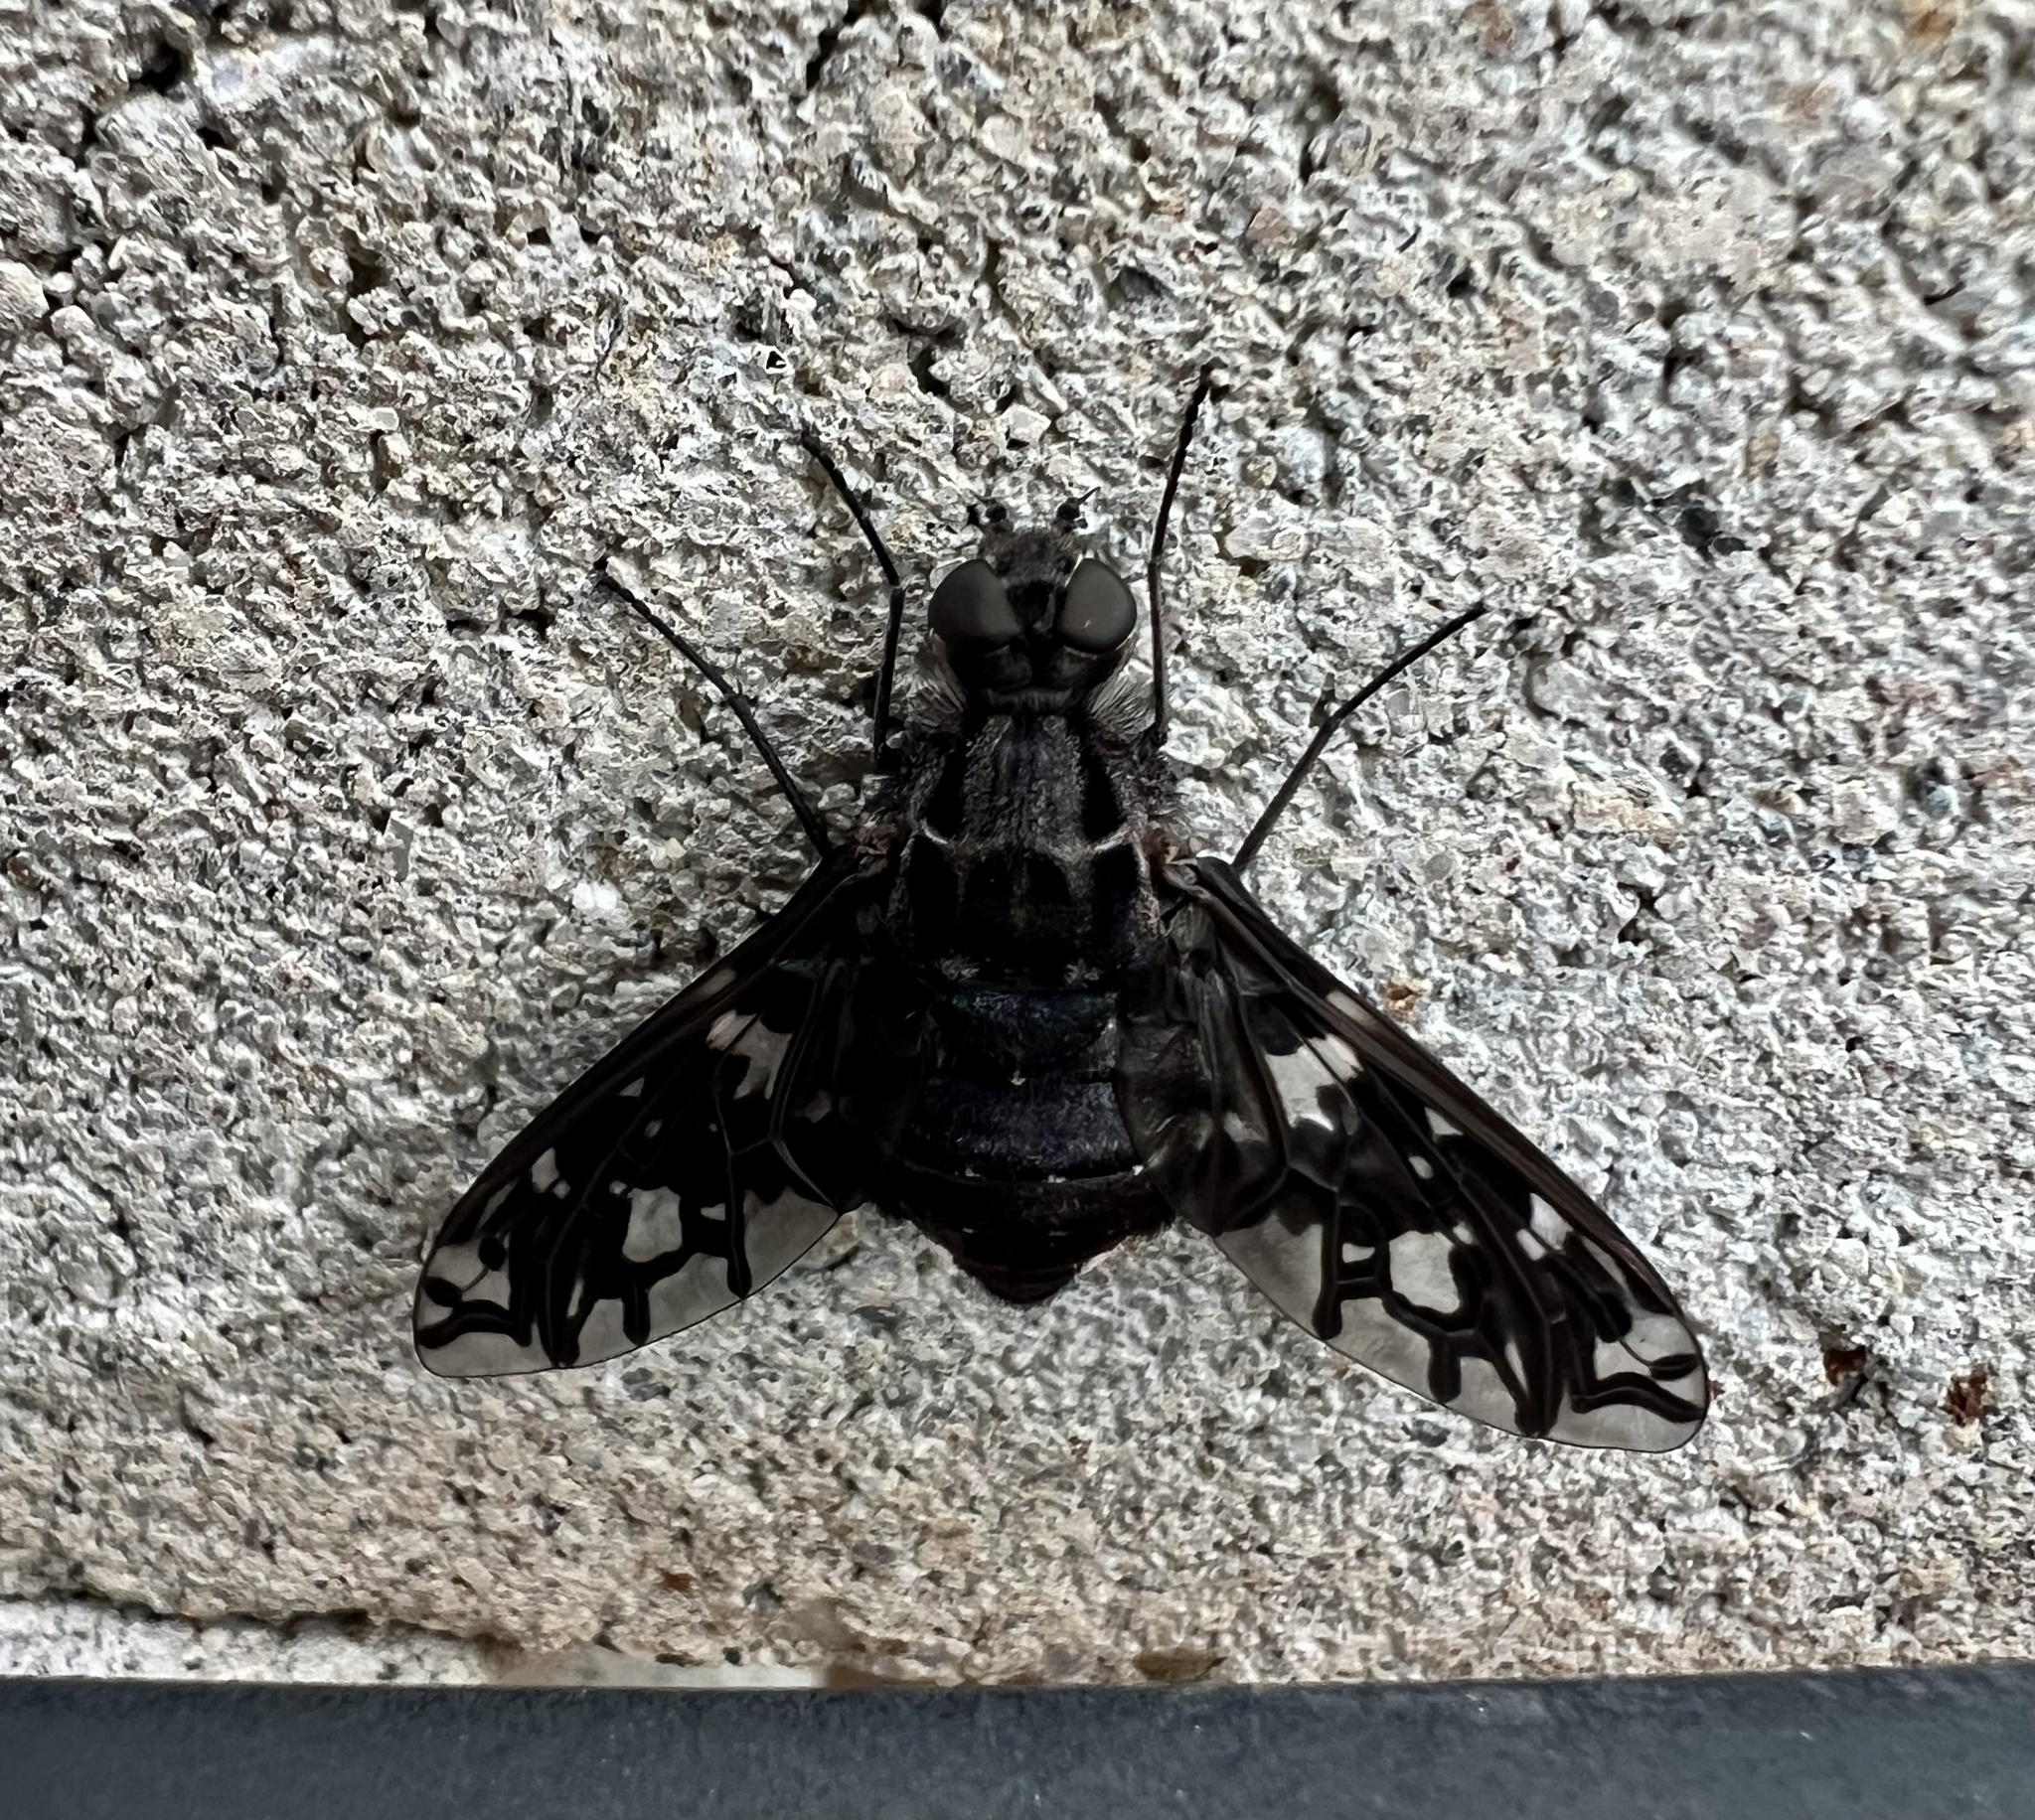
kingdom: Animalia
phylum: Arthropoda
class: Insecta
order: Diptera
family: Bombyliidae
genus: Xenox
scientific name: Xenox tigrinus
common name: Tiger bee fly
